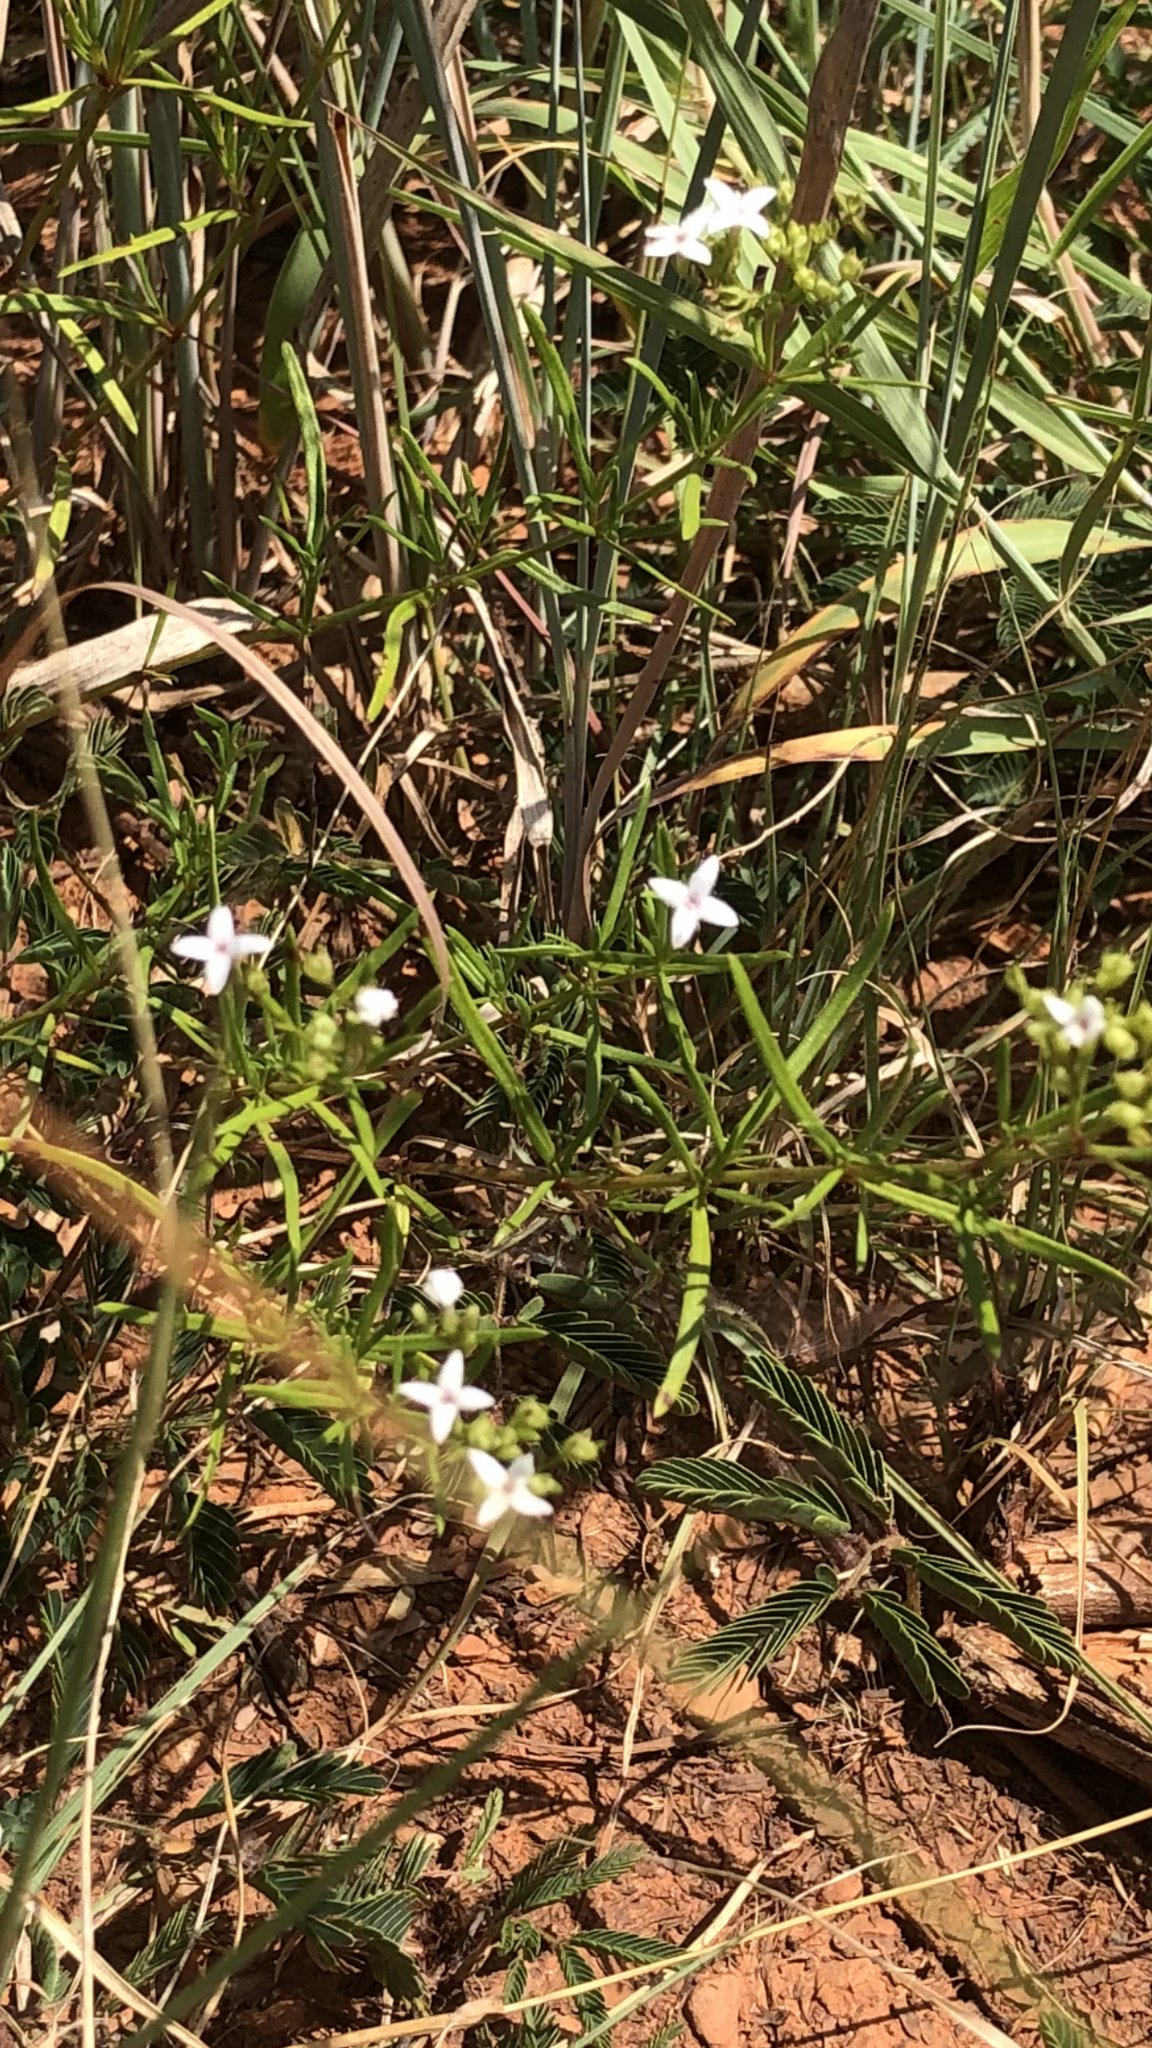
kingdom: Plantae
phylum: Tracheophyta
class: Magnoliopsida
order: Gentianales
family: Rubiaceae
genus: Stenaria
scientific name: Stenaria nigricans
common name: Diamondflowers
